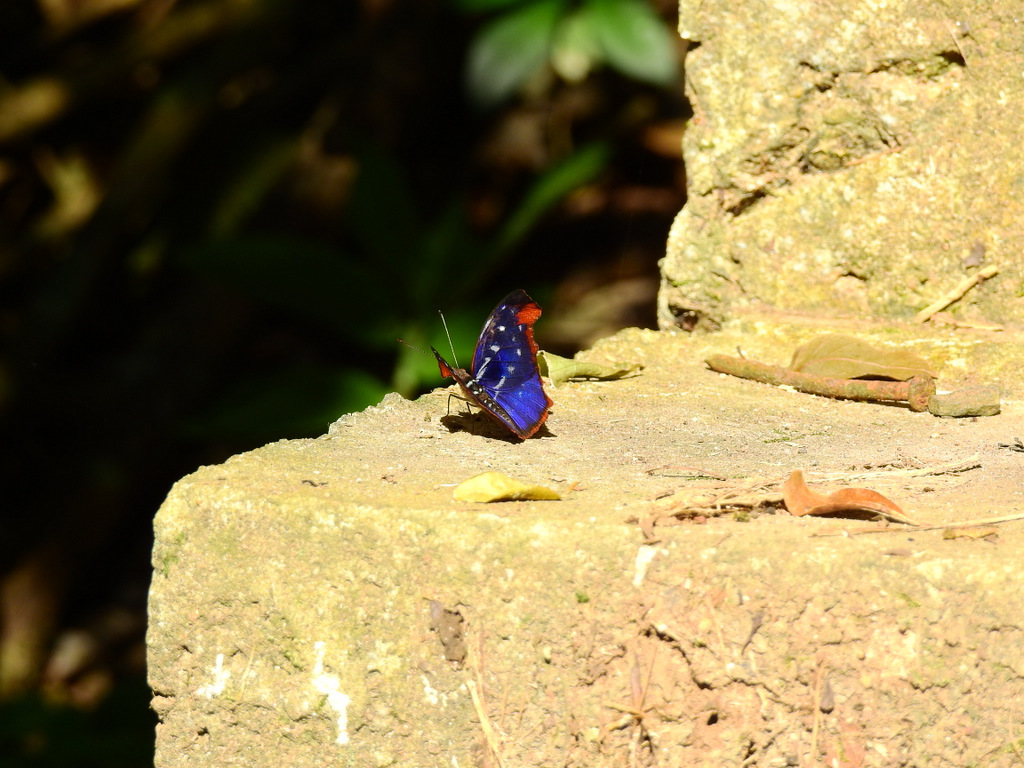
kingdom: Animalia
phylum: Arthropoda
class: Insecta
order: Lepidoptera
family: Nymphalidae
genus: Myscelia
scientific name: Myscelia orsis
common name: Orsis bluewing
